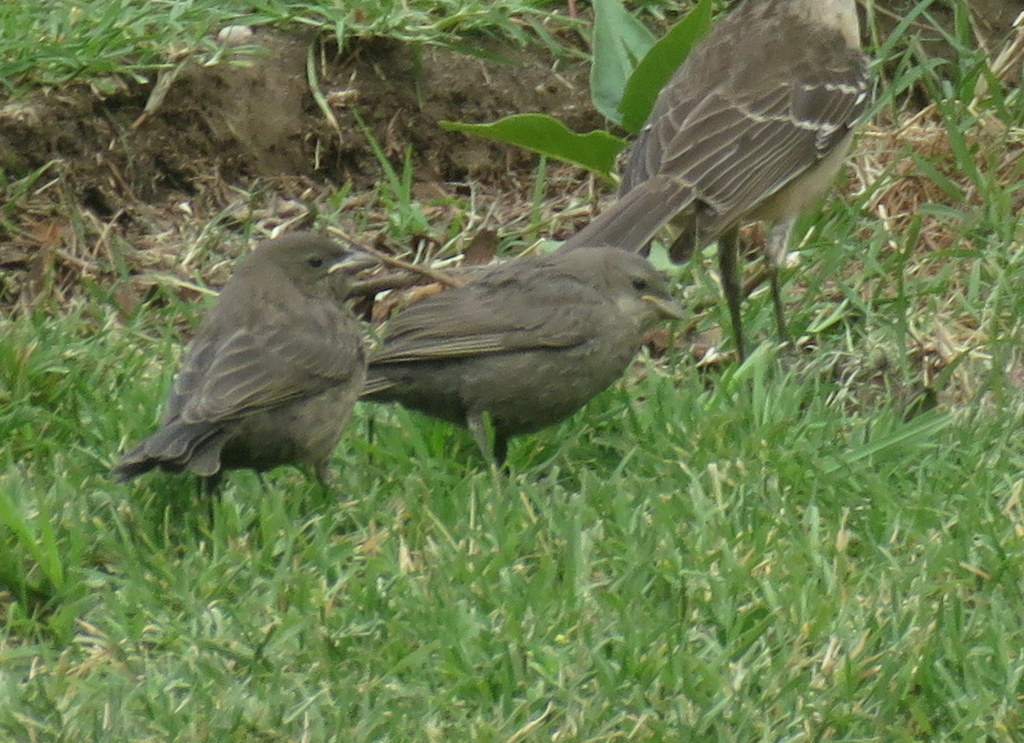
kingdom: Animalia
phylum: Chordata
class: Aves
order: Passeriformes
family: Icteridae
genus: Molothrus
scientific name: Molothrus bonariensis
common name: Shiny cowbird
